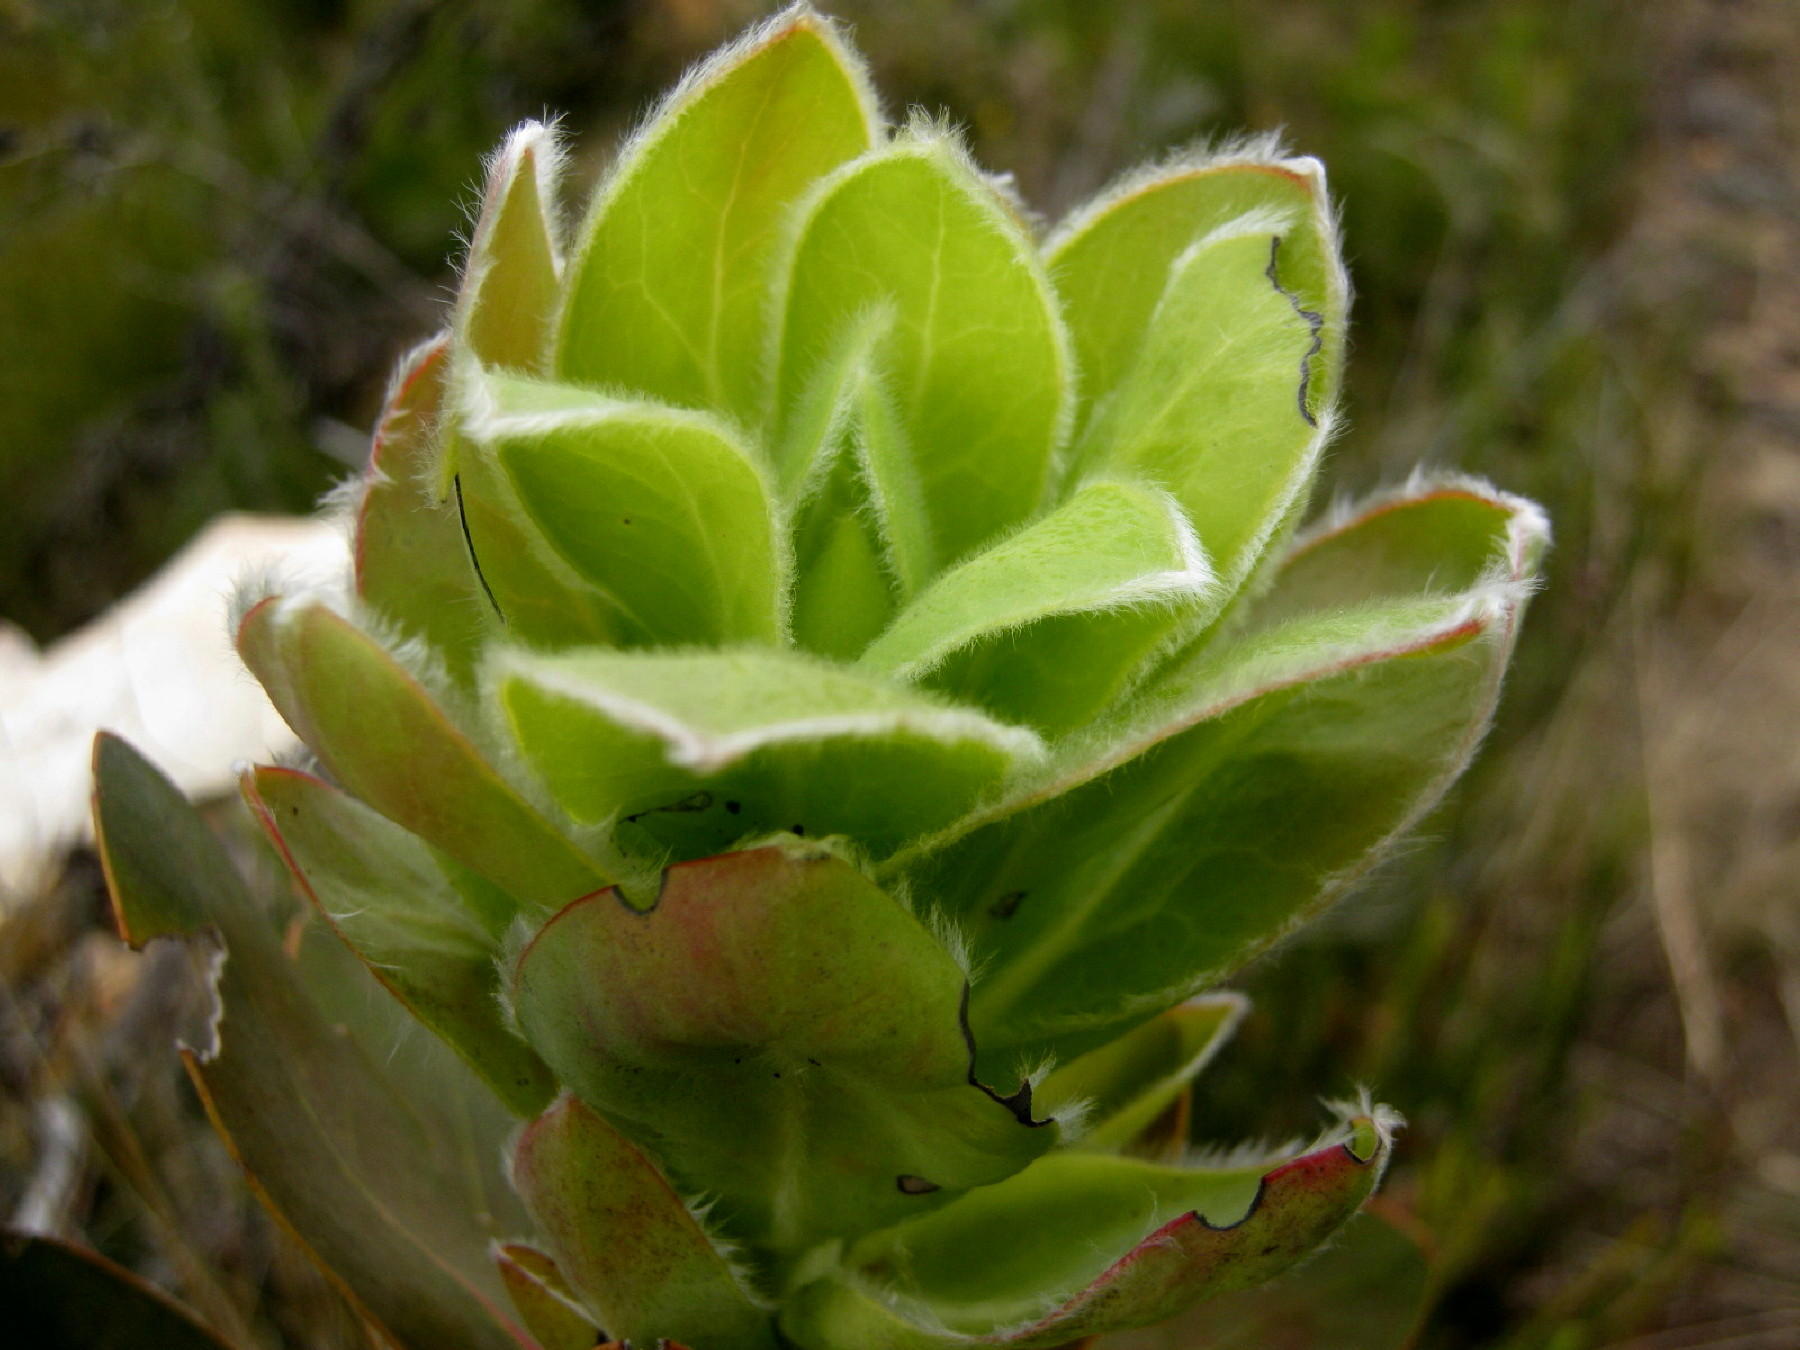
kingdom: Plantae
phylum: Tracheophyta
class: Magnoliopsida
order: Proteales
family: Proteaceae
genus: Protea
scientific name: Protea eximia
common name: Broad-leaved sugarbush
